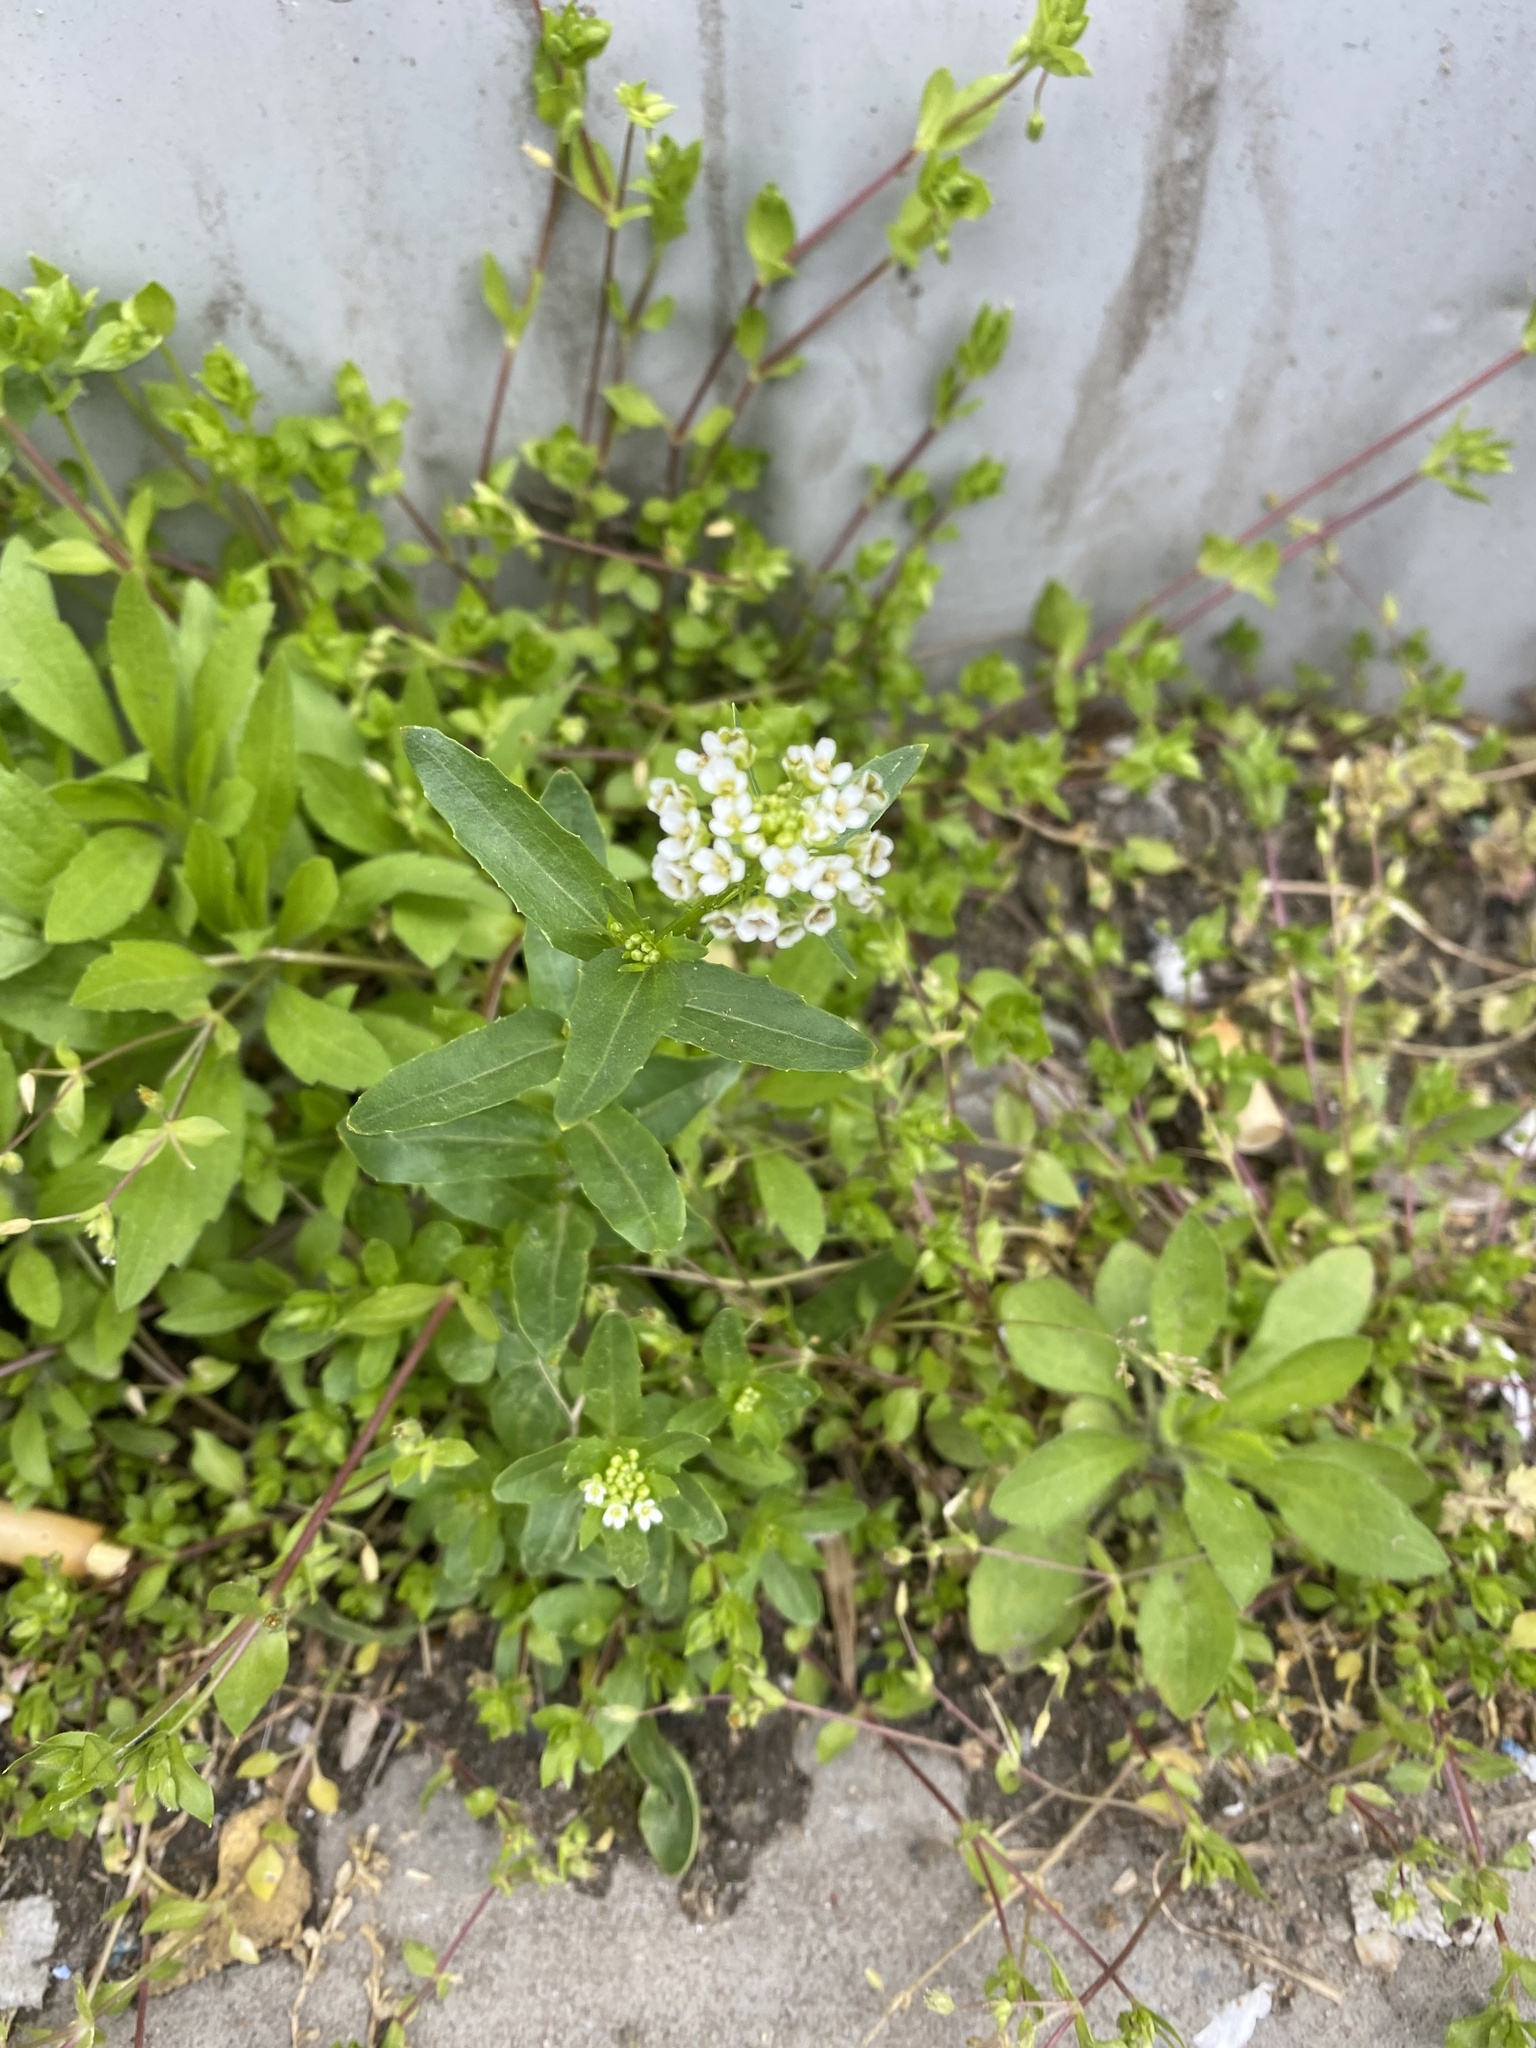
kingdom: Plantae
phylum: Tracheophyta
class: Magnoliopsida
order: Brassicales
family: Brassicaceae
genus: Thlaspi
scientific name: Thlaspi arvense
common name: Field pennycress
